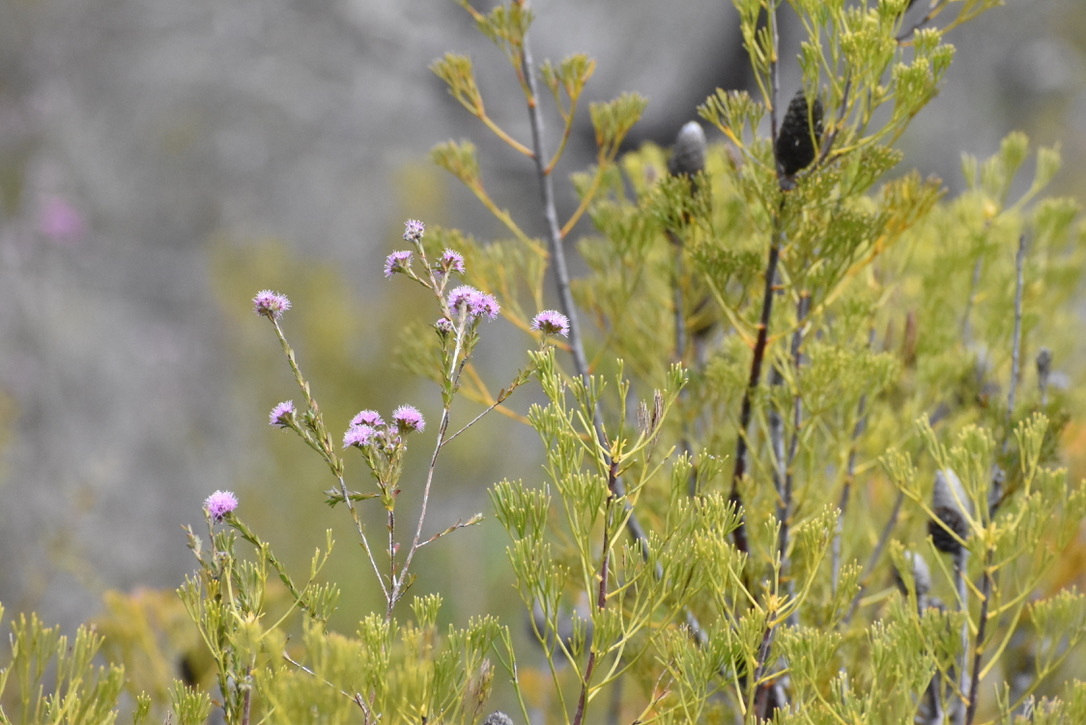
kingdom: Plantae
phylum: Tracheophyta
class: Magnoliopsida
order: Myrtales
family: Myrtaceae
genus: Kunzea
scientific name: Kunzea capitata
